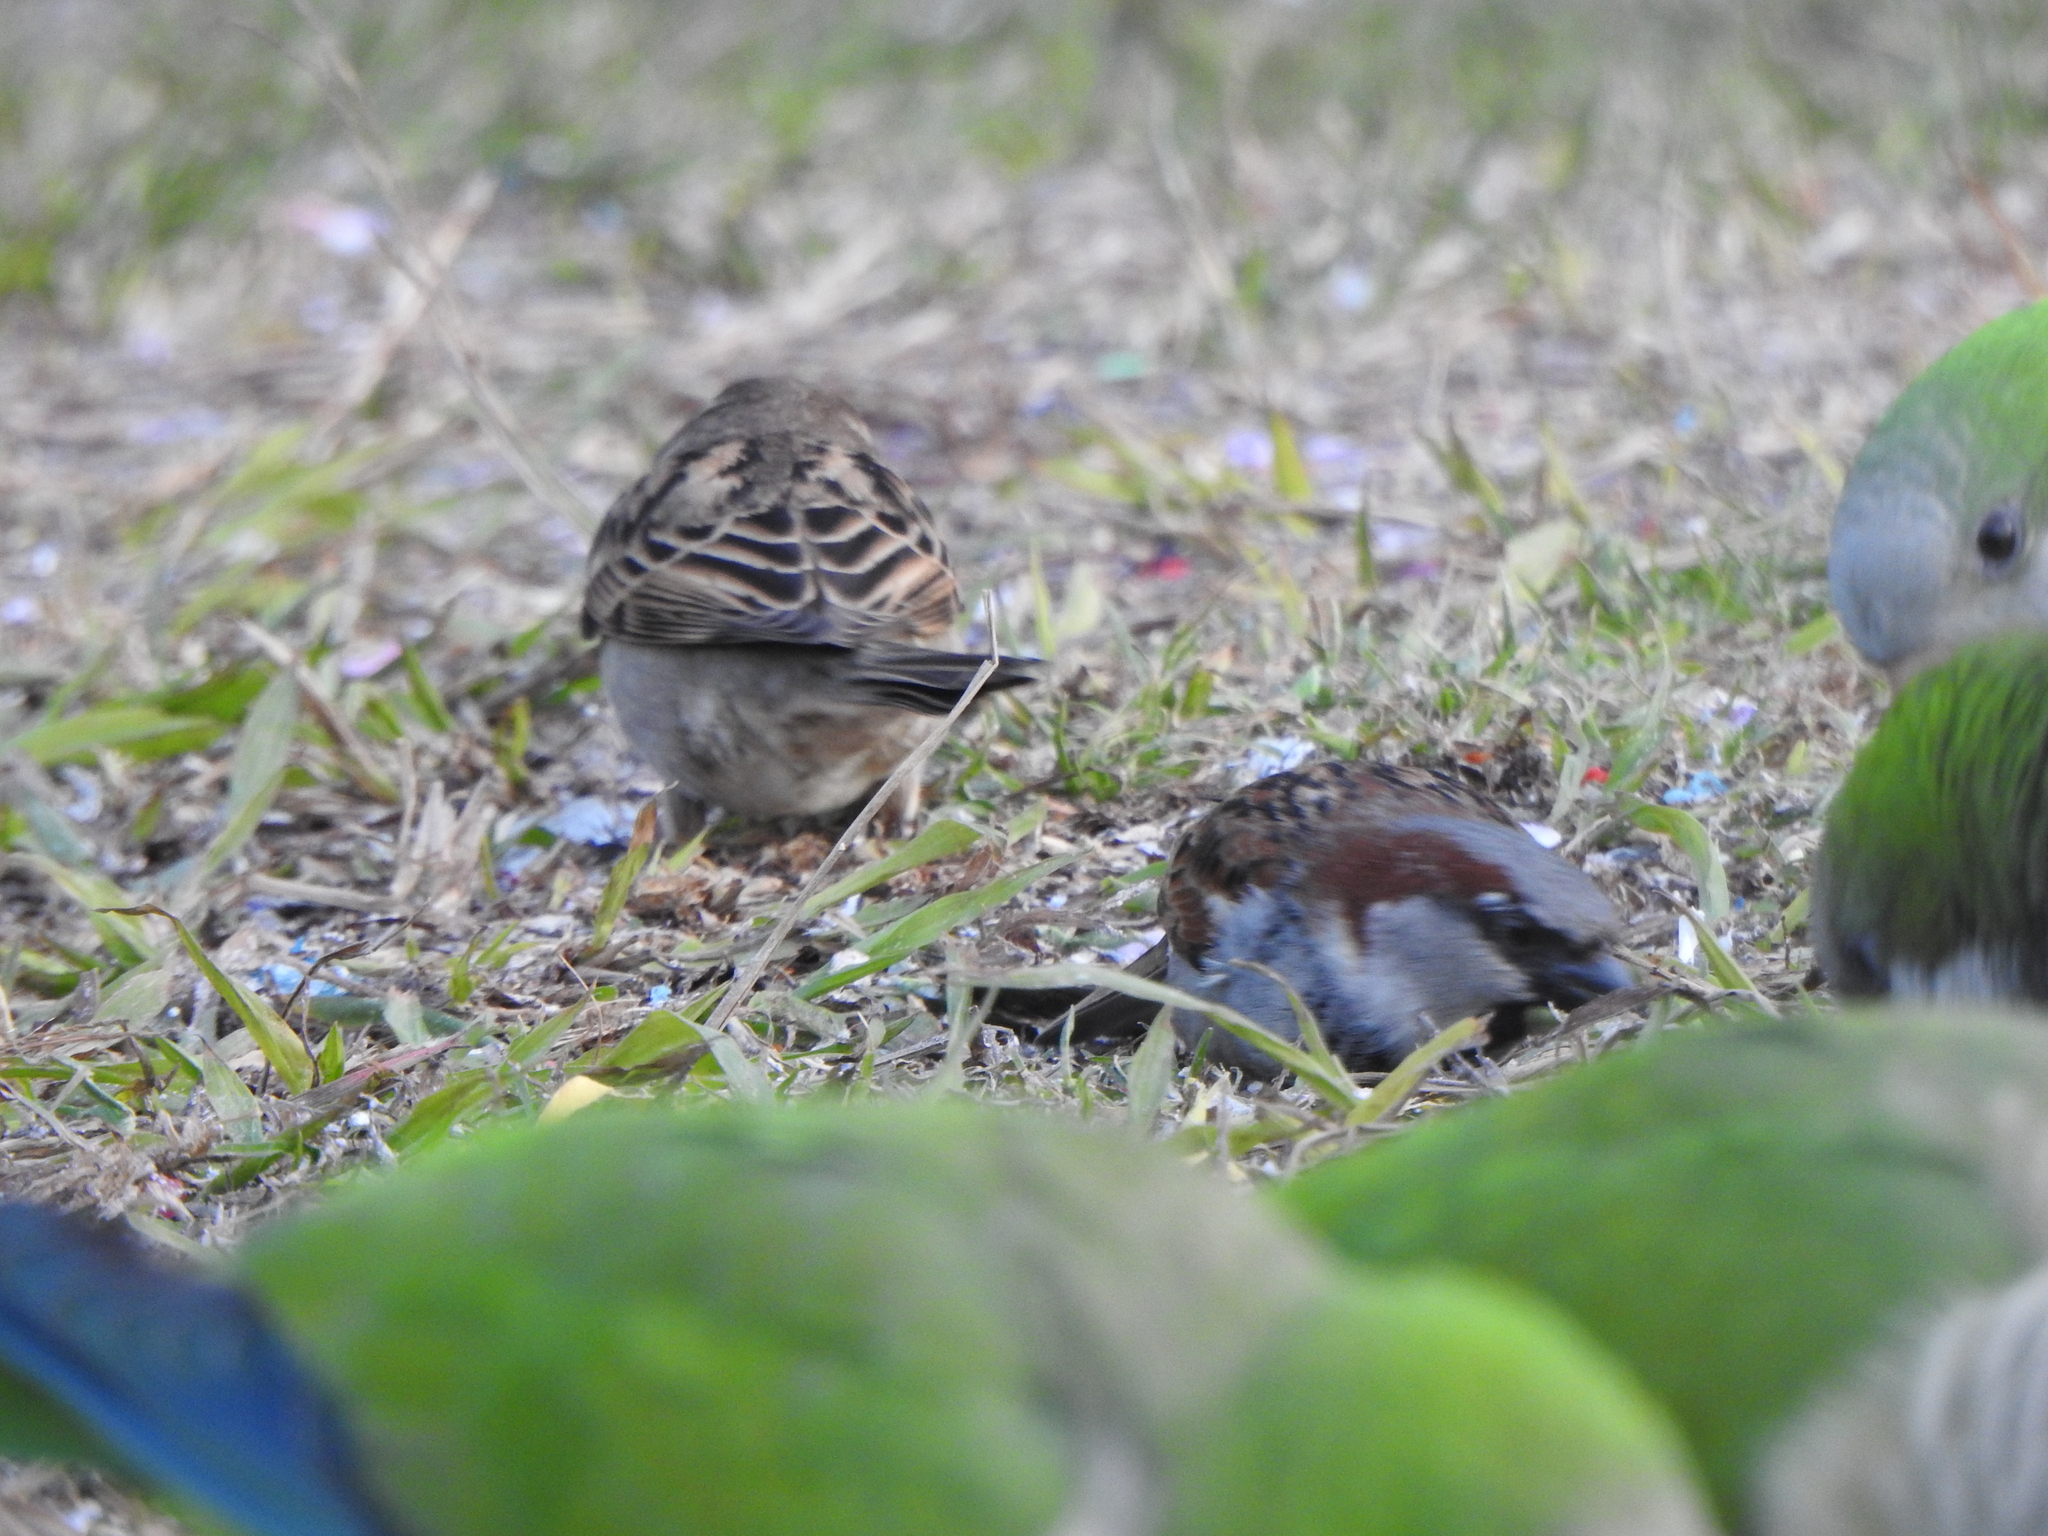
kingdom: Animalia
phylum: Chordata
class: Aves
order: Passeriformes
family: Passeridae
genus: Passer
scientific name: Passer domesticus
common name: House sparrow
